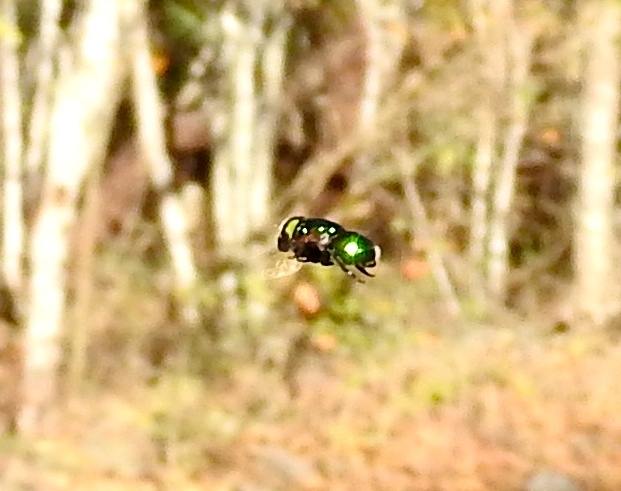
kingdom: Animalia
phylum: Arthropoda
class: Insecta
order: Diptera
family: Syrphidae
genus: Ornidia
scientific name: Ornidia obesa
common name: Syrphid fly
